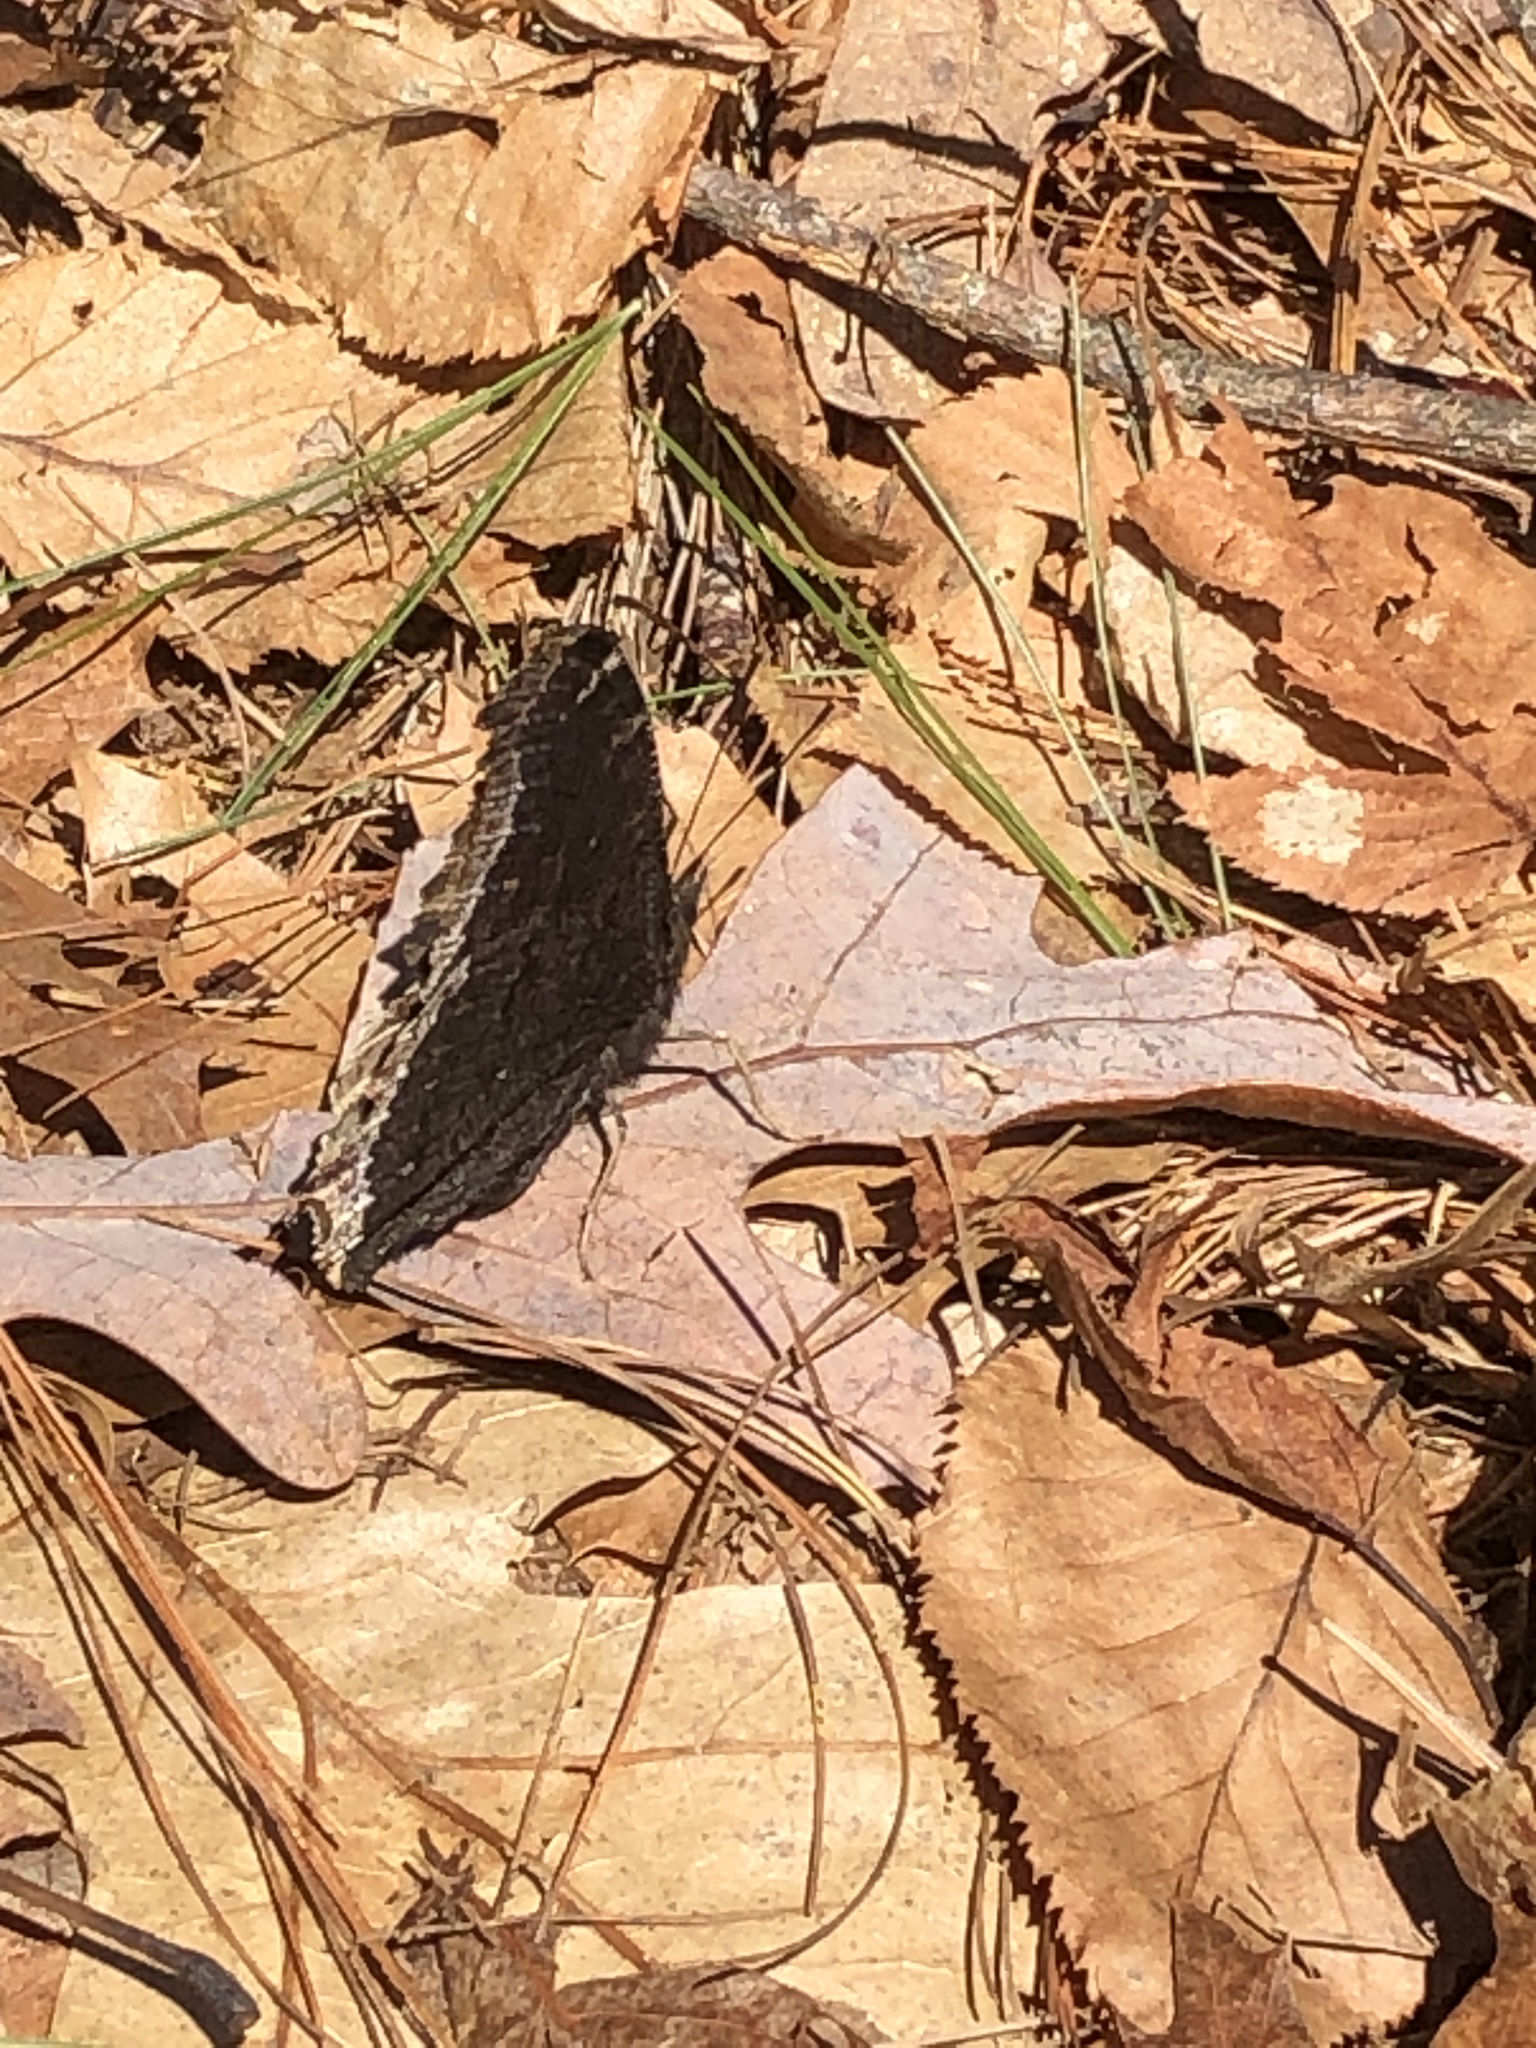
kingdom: Animalia
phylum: Arthropoda
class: Insecta
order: Lepidoptera
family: Nymphalidae
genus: Nymphalis
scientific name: Nymphalis antiopa
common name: Camberwell beauty
